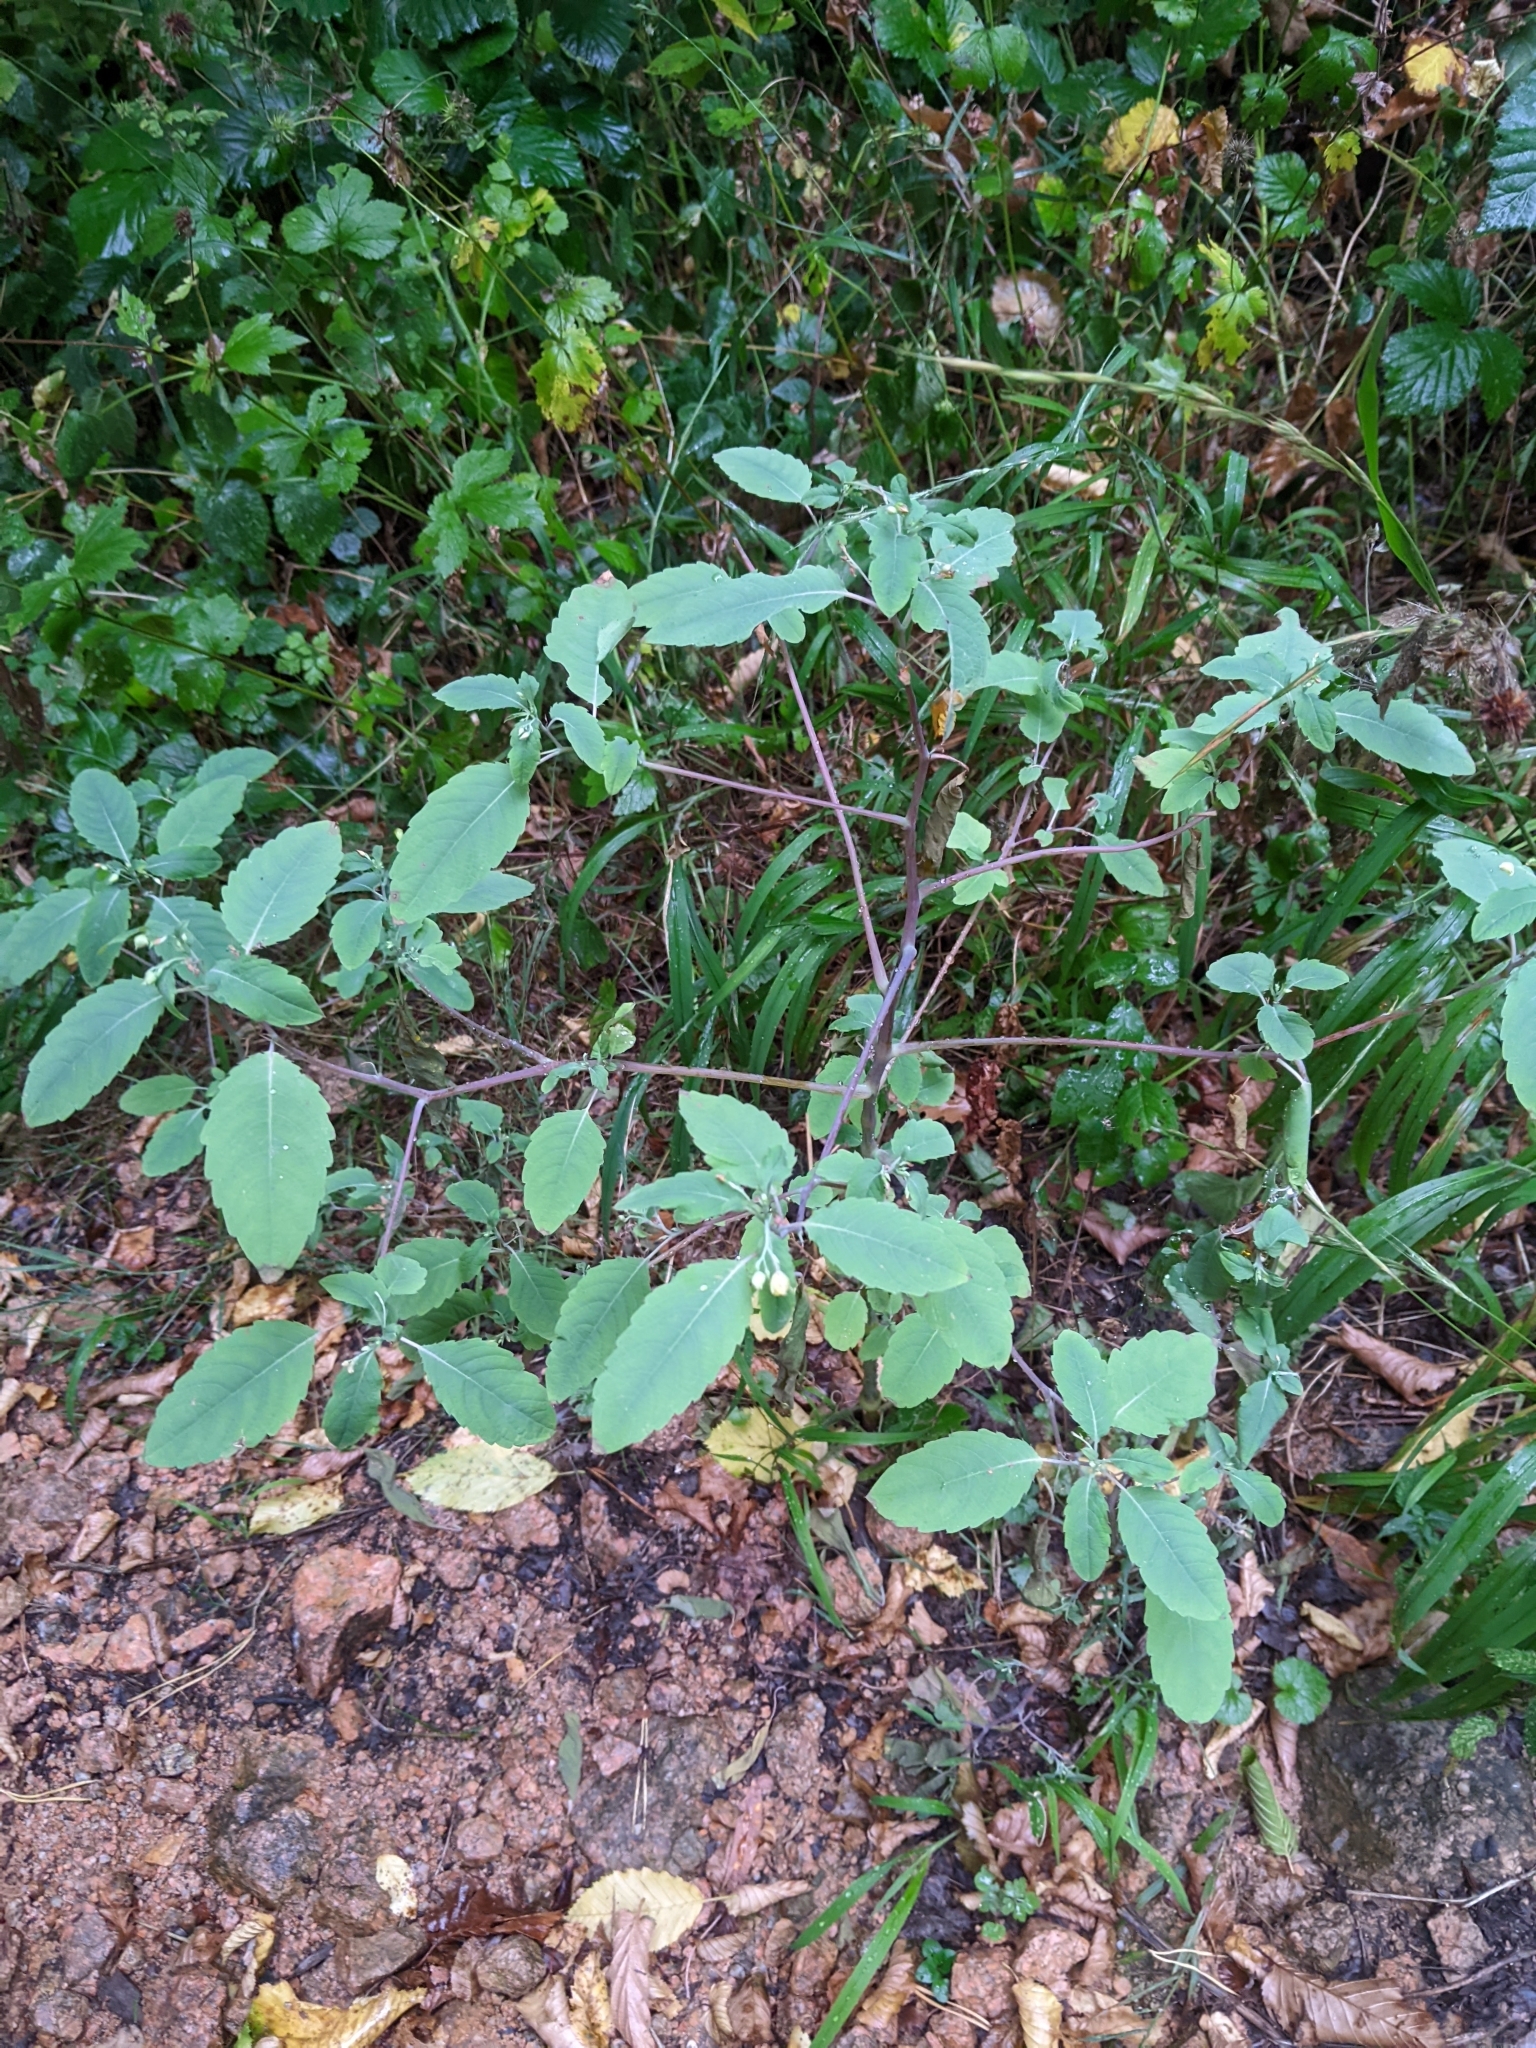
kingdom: Plantae
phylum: Tracheophyta
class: Magnoliopsida
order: Ericales
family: Balsaminaceae
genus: Impatiens
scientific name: Impatiens noli-tangere
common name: Touch-me-not balsam
